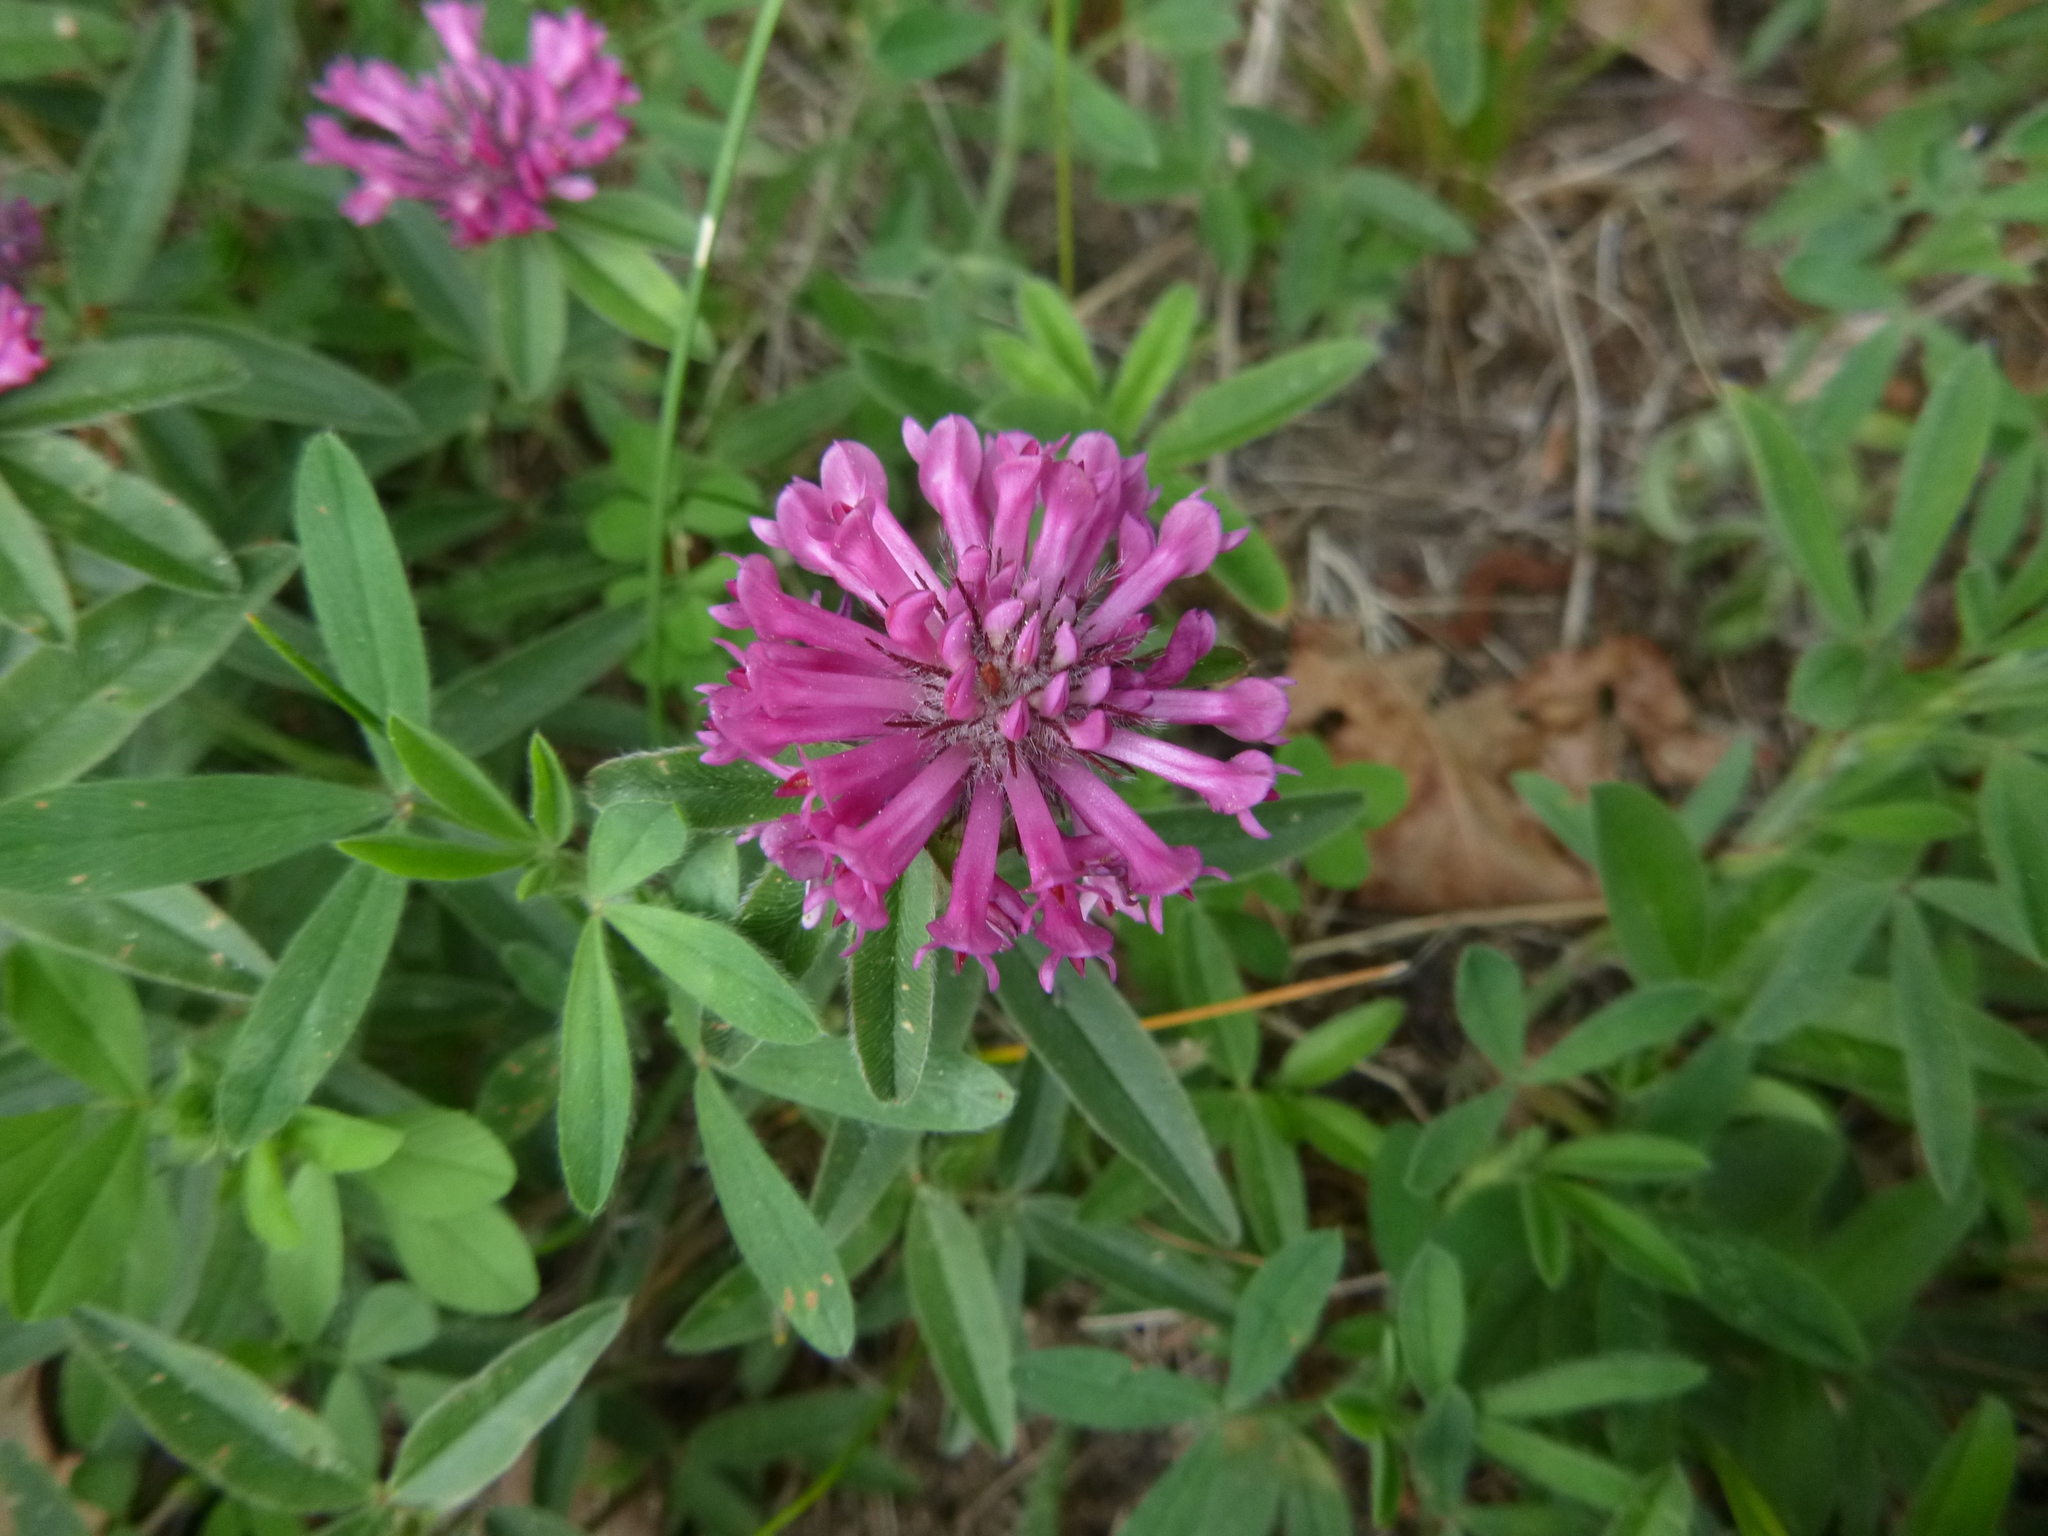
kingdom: Plantae
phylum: Tracheophyta
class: Magnoliopsida
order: Fabales
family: Fabaceae
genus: Trifolium
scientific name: Trifolium medium
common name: Zigzag clover
